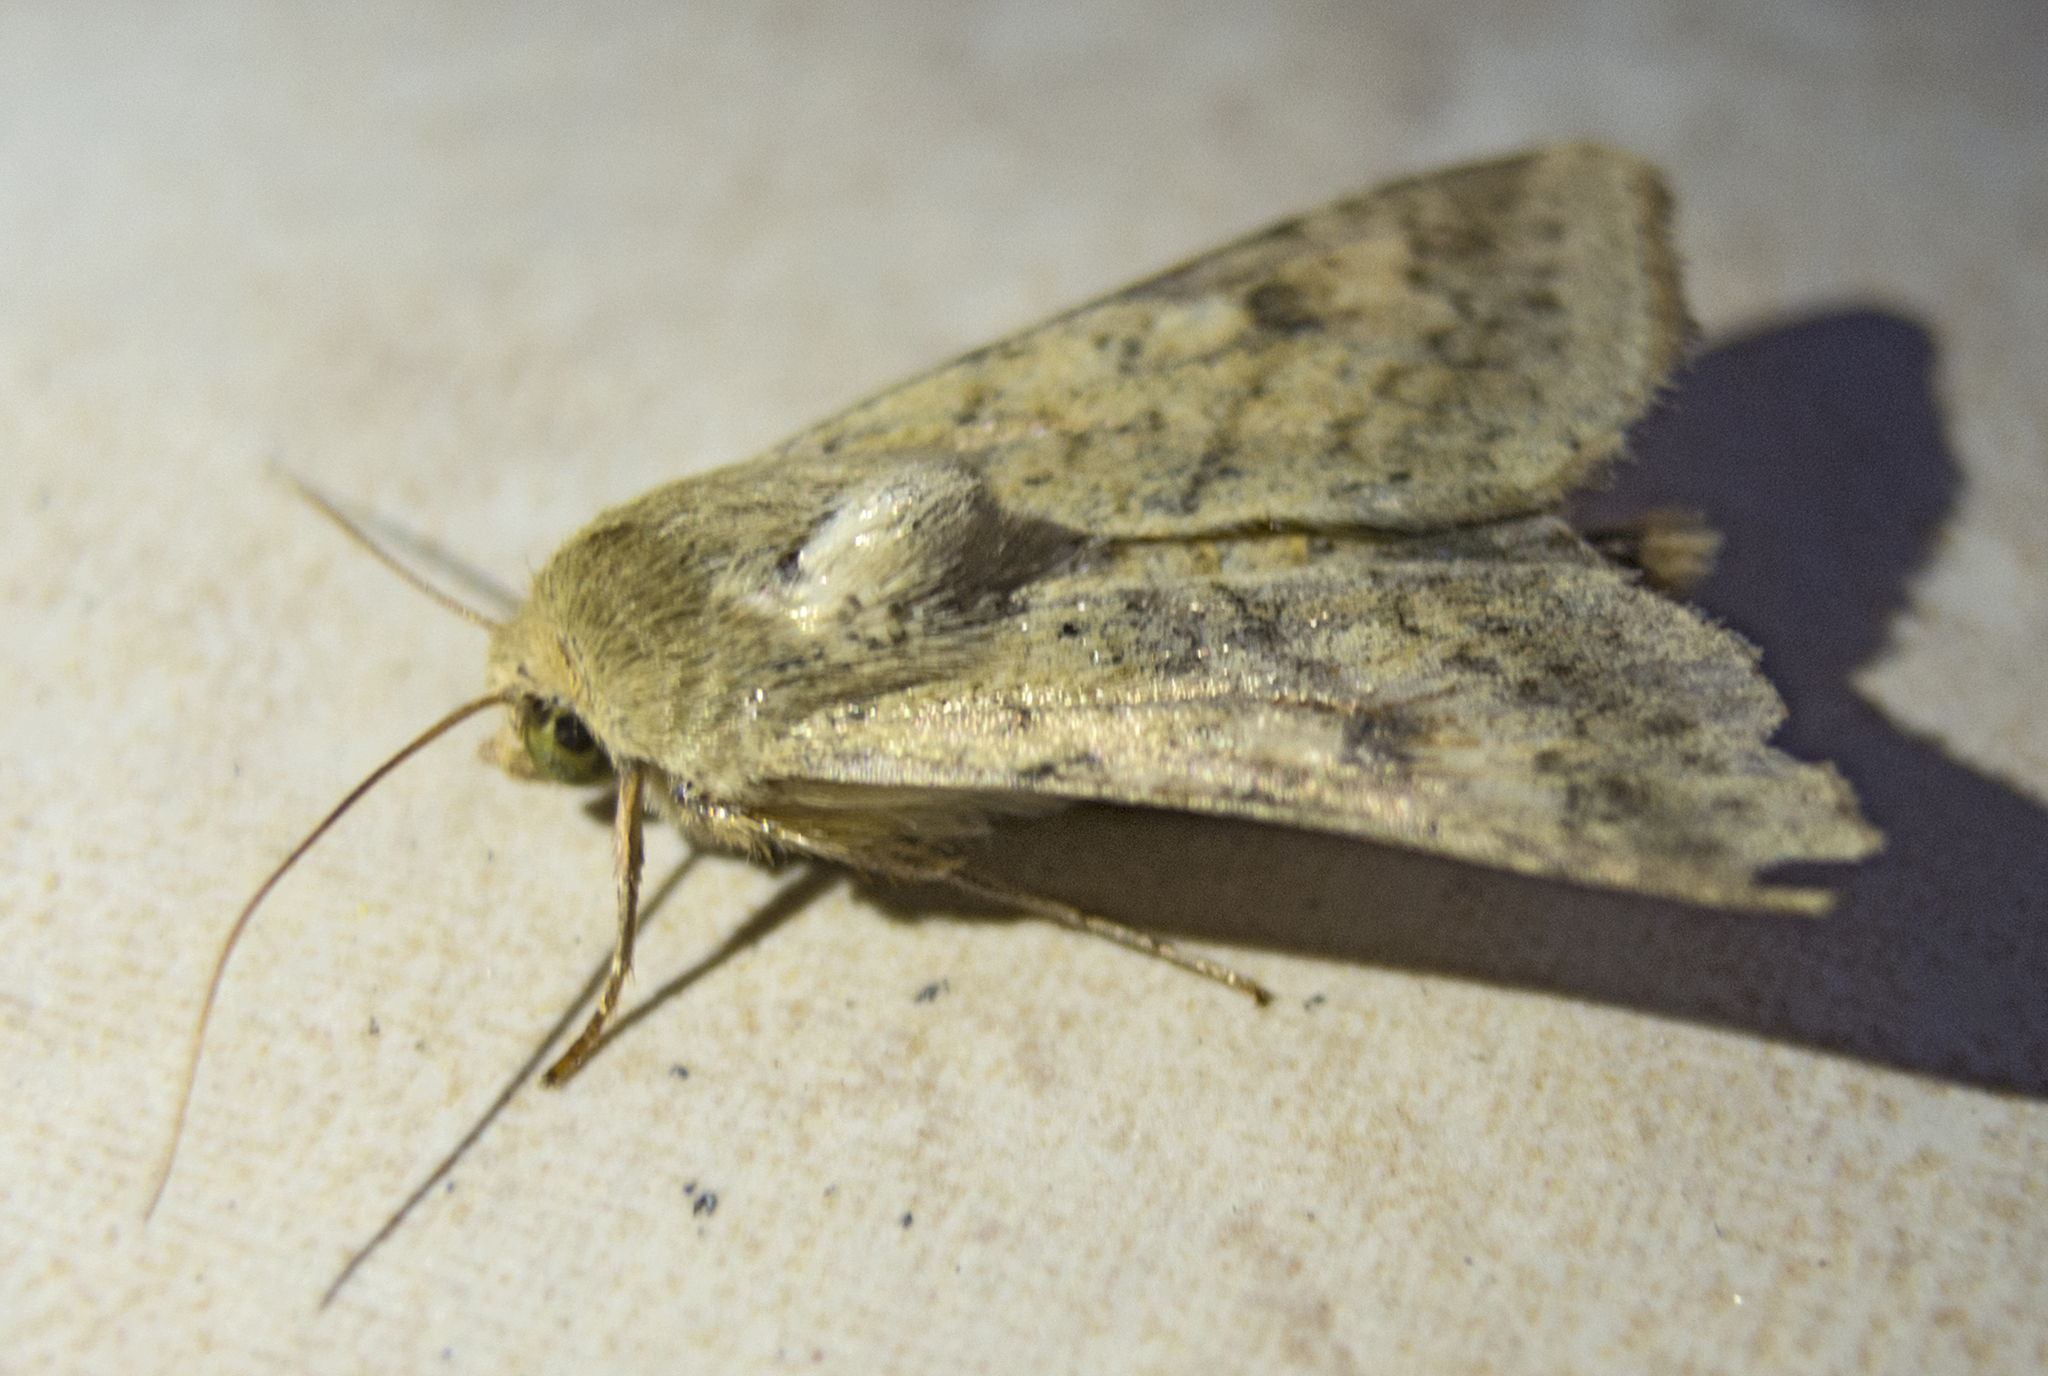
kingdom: Animalia
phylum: Arthropoda
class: Insecta
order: Lepidoptera
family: Noctuidae
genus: Helicoverpa
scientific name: Helicoverpa armigera
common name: Cotton bollworm
